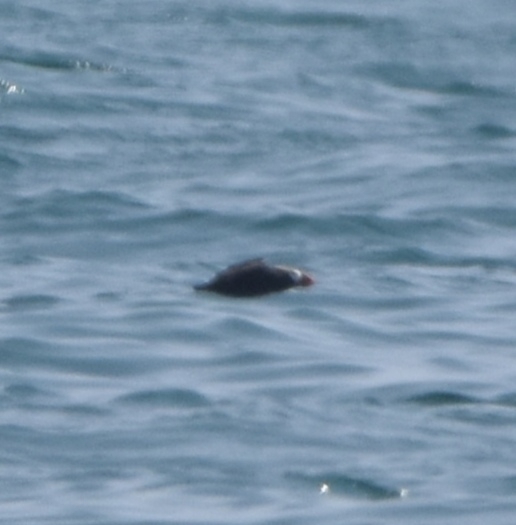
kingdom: Animalia
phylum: Chordata
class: Aves
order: Charadriiformes
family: Alcidae
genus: Fratercula
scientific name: Fratercula cirrhata
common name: Tufted puffin
